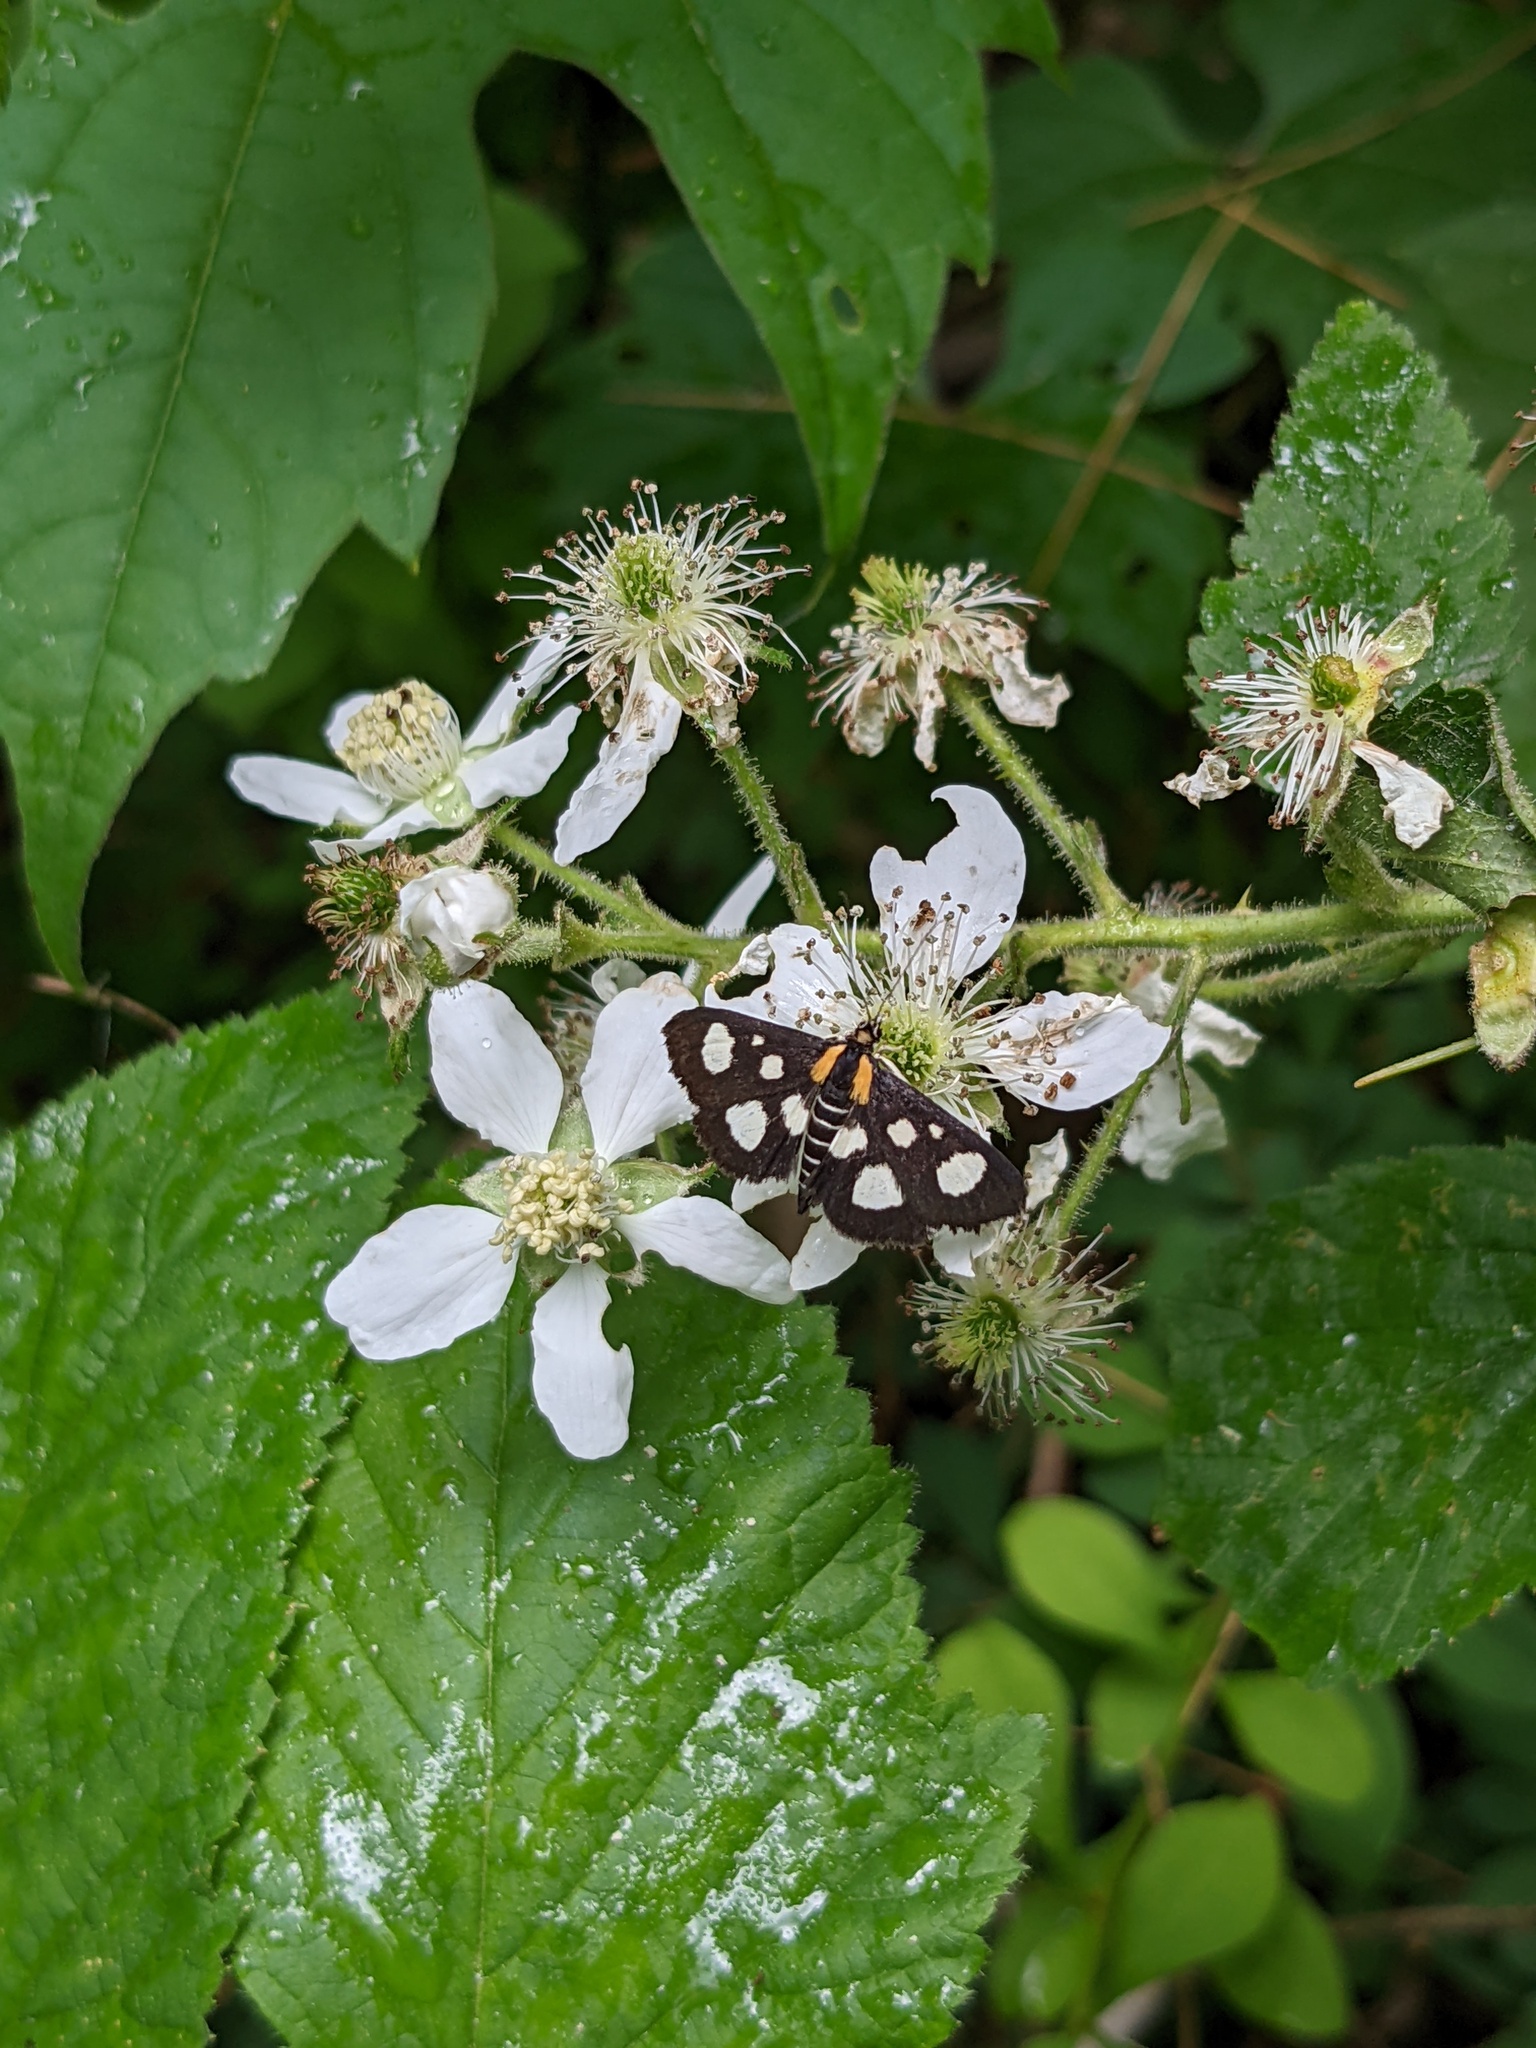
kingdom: Animalia
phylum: Arthropoda
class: Insecta
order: Lepidoptera
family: Crambidae
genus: Anania
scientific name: Anania funebris
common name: White-spotted sable moth
